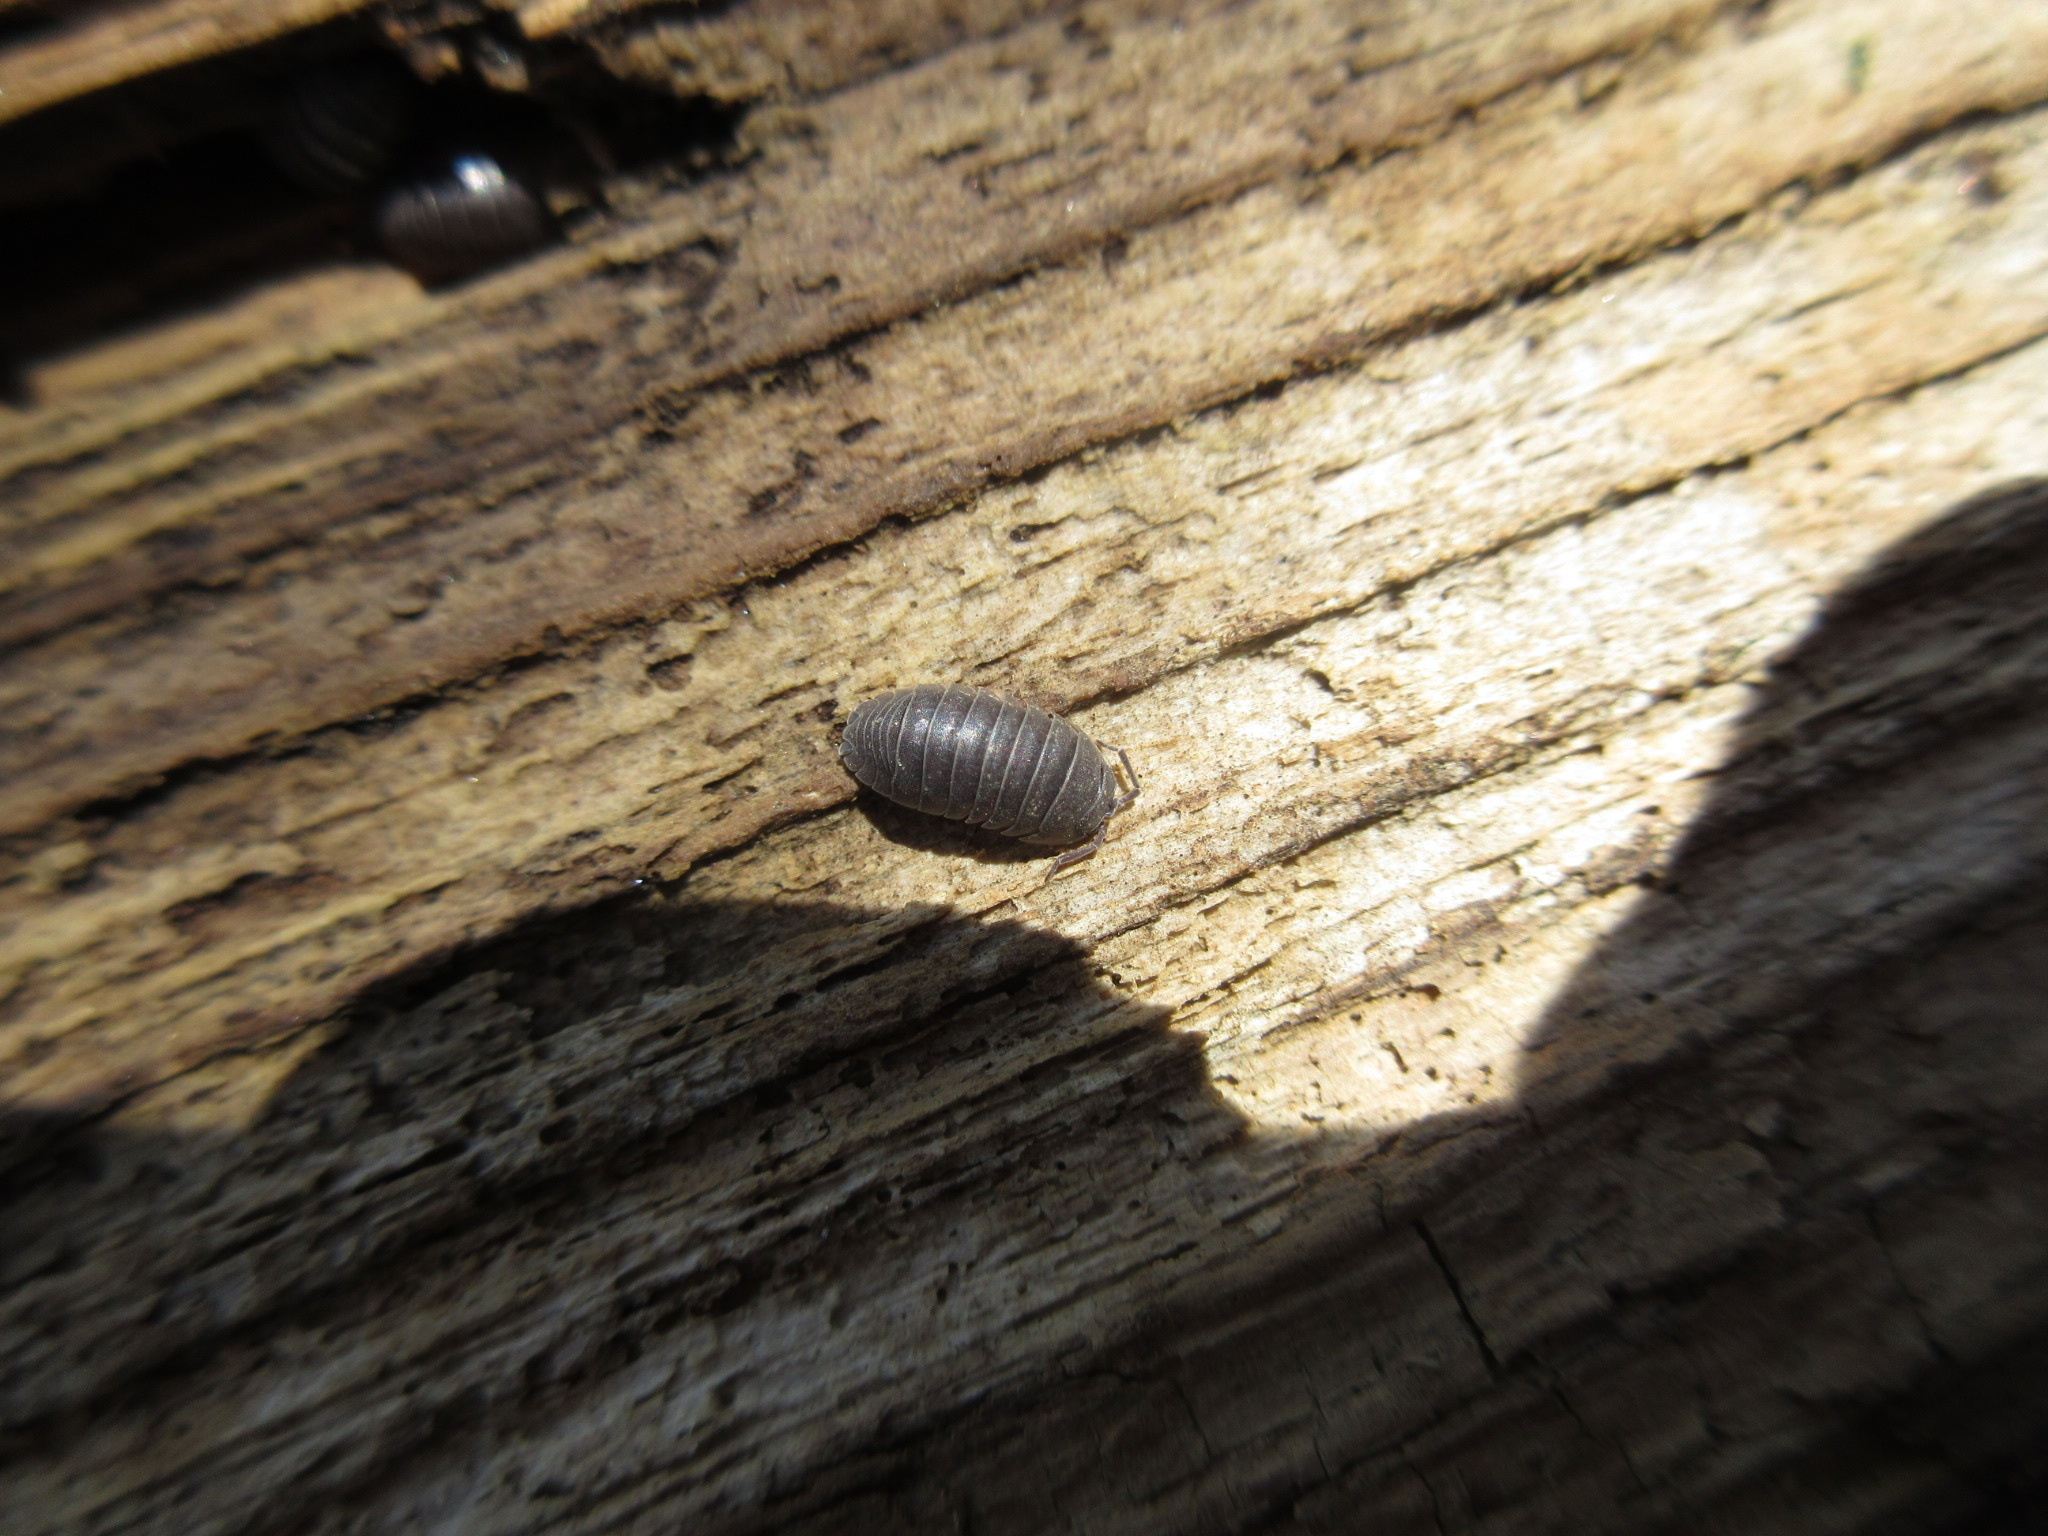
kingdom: Animalia
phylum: Arthropoda
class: Malacostraca
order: Isopoda
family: Armadillidiidae
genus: Armadillidium
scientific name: Armadillidium nasatum
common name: Isopod
